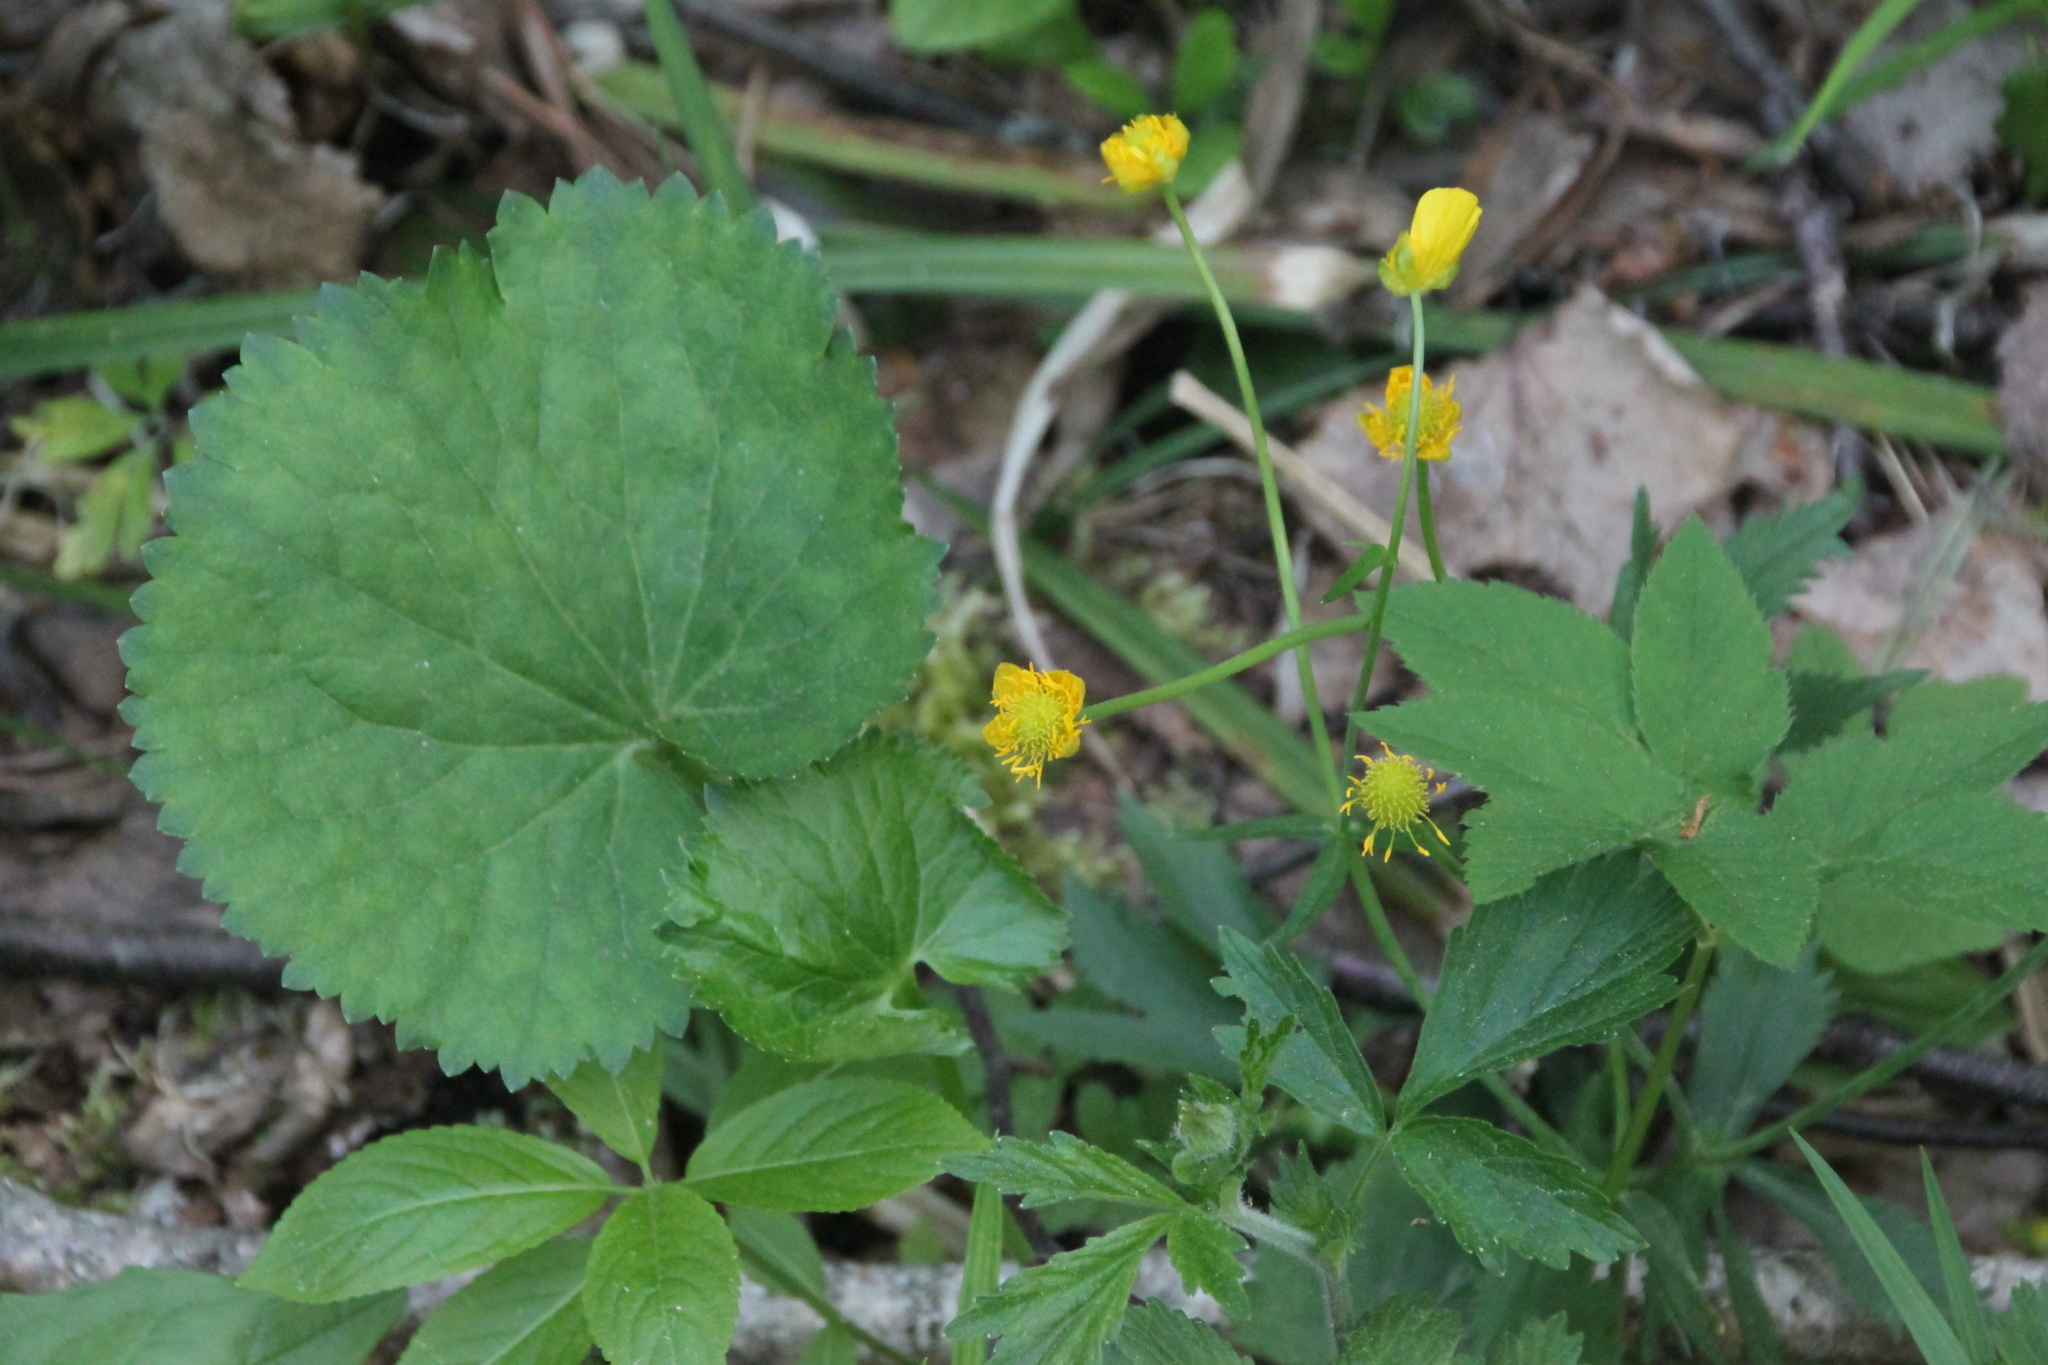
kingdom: Plantae
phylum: Tracheophyta
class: Magnoliopsida
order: Ranunculales
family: Ranunculaceae
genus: Ranunculus
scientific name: Ranunculus cassubicus
